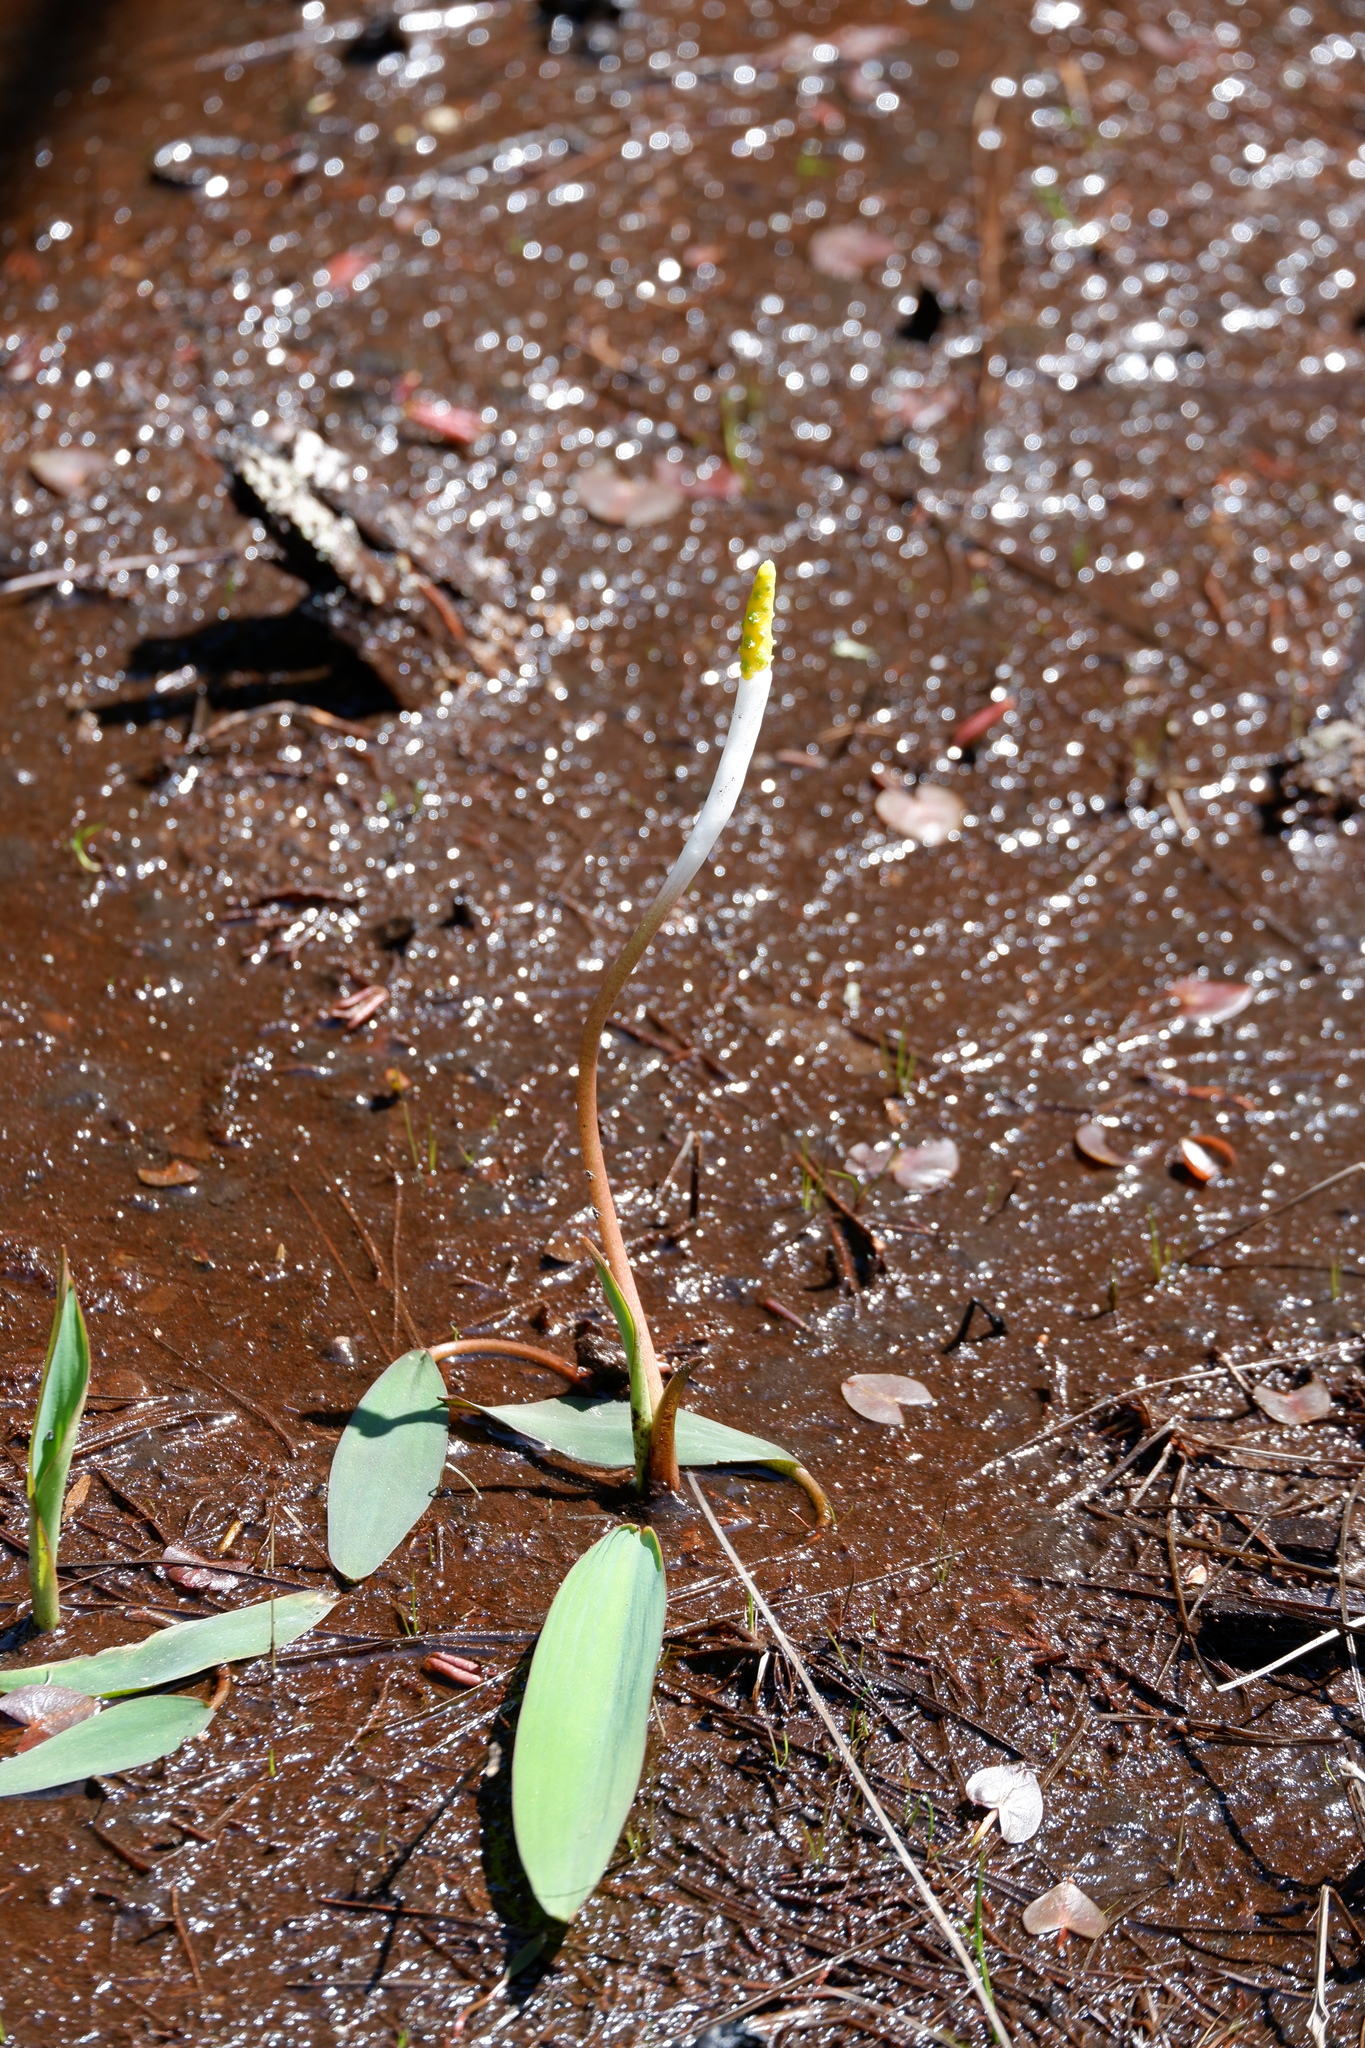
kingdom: Plantae
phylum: Tracheophyta
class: Liliopsida
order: Alismatales
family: Araceae
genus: Orontium
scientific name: Orontium aquaticum
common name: Golden-club
